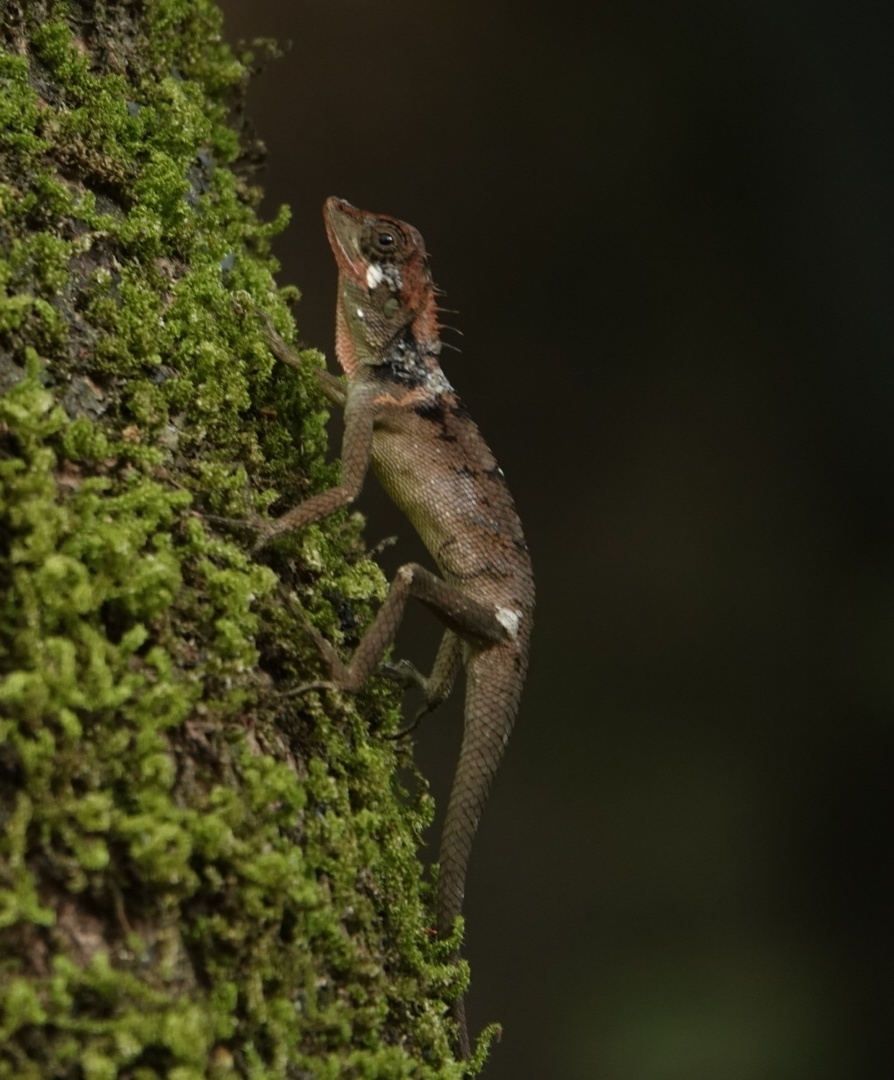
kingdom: Animalia
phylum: Chordata
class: Squamata
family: Agamidae
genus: Monilesaurus
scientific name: Monilesaurus ellioti
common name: Elliot's forest lizard
